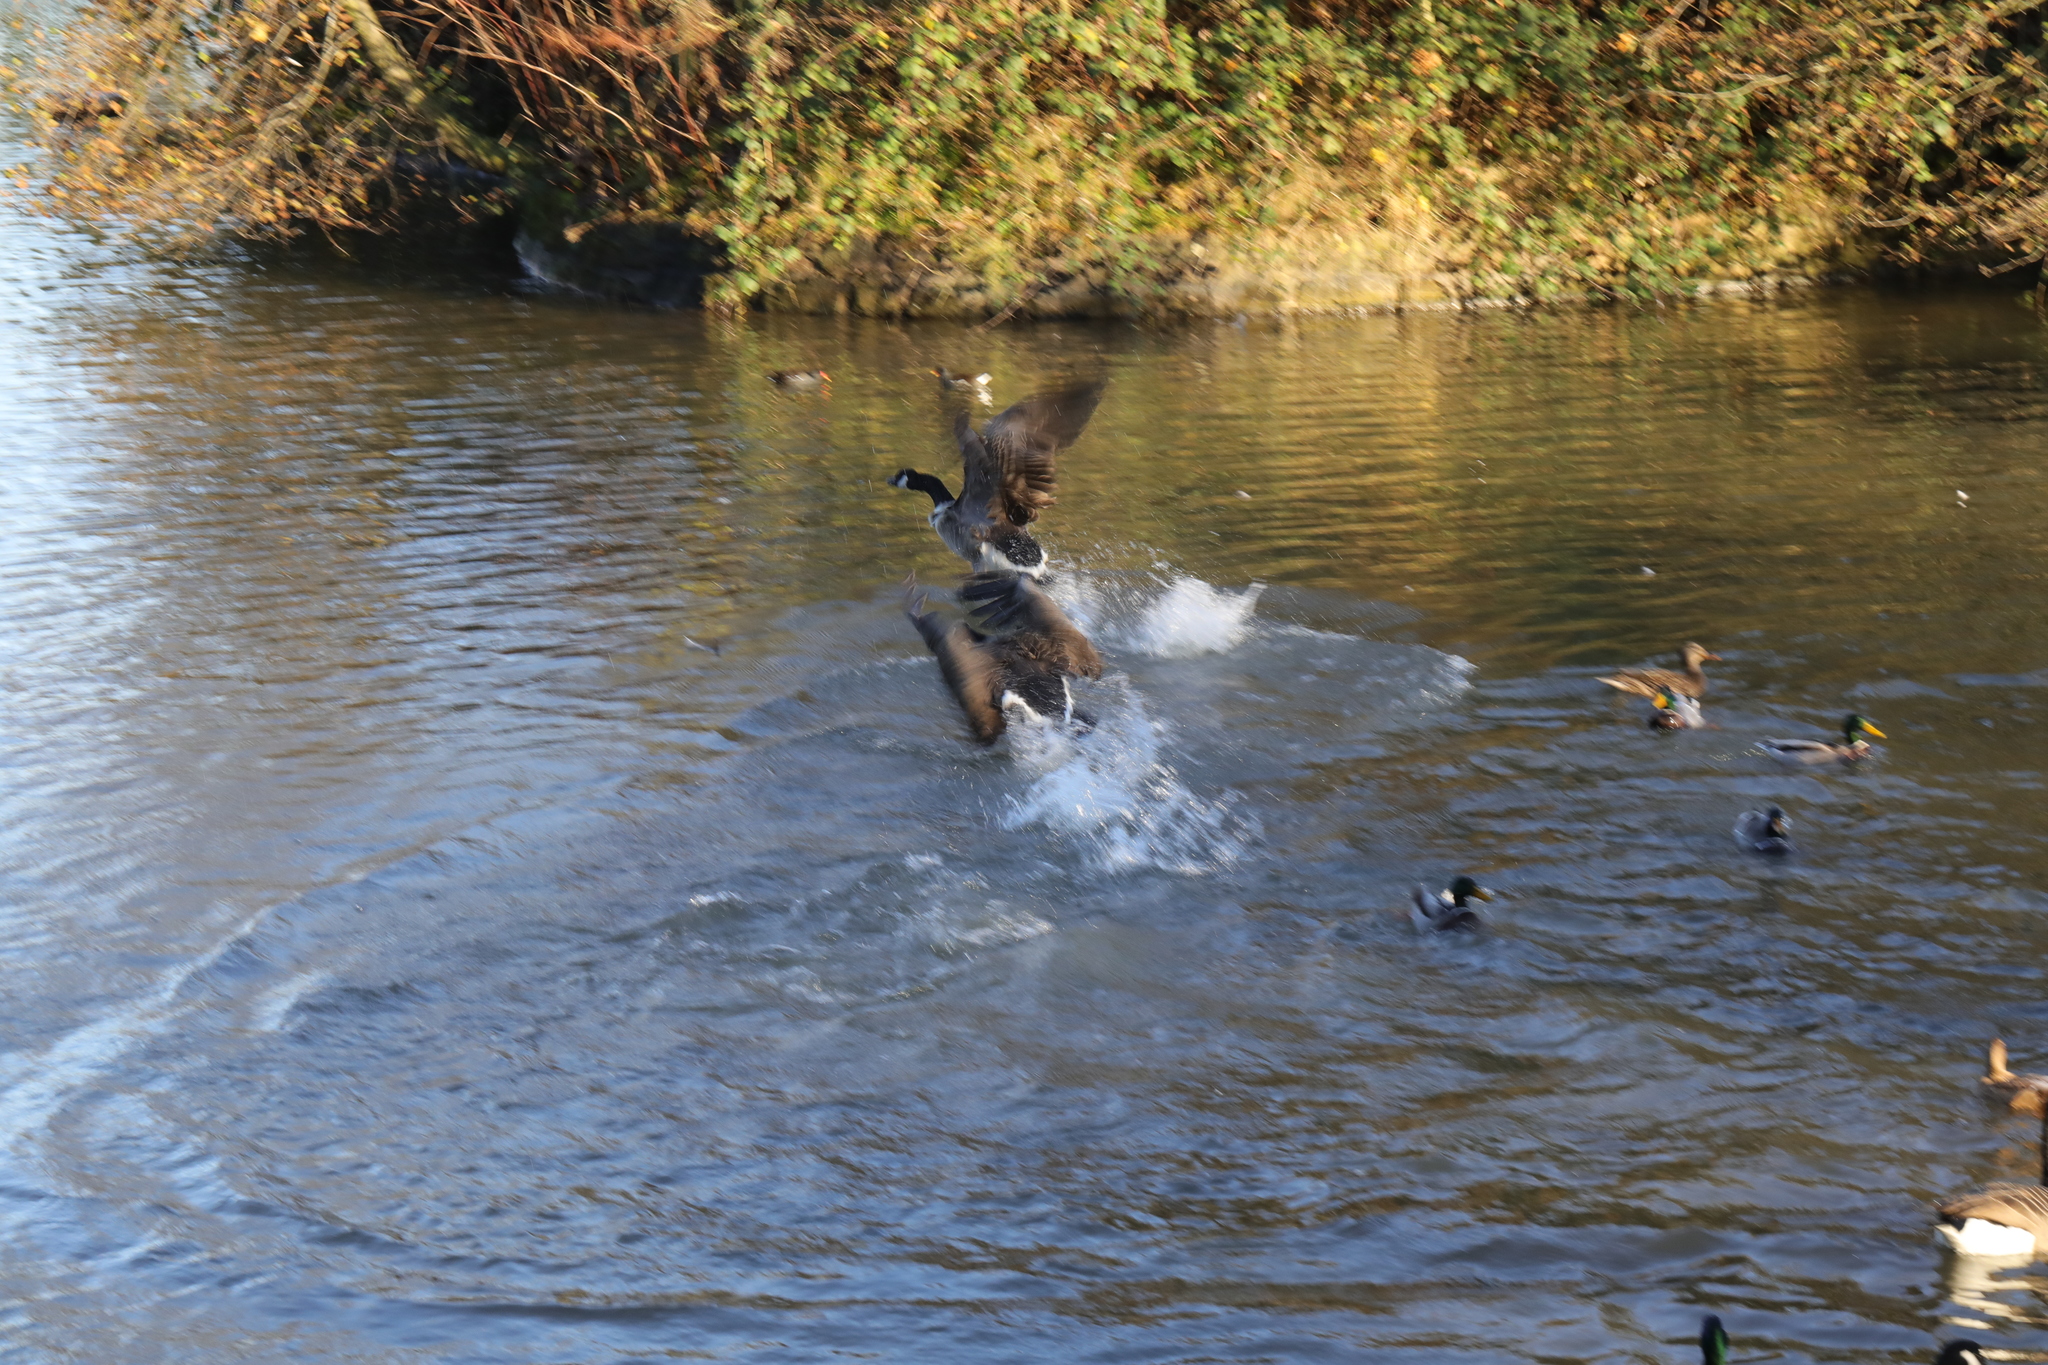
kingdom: Animalia
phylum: Chordata
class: Aves
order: Anseriformes
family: Anatidae
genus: Branta
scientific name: Branta canadensis
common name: Canada goose
